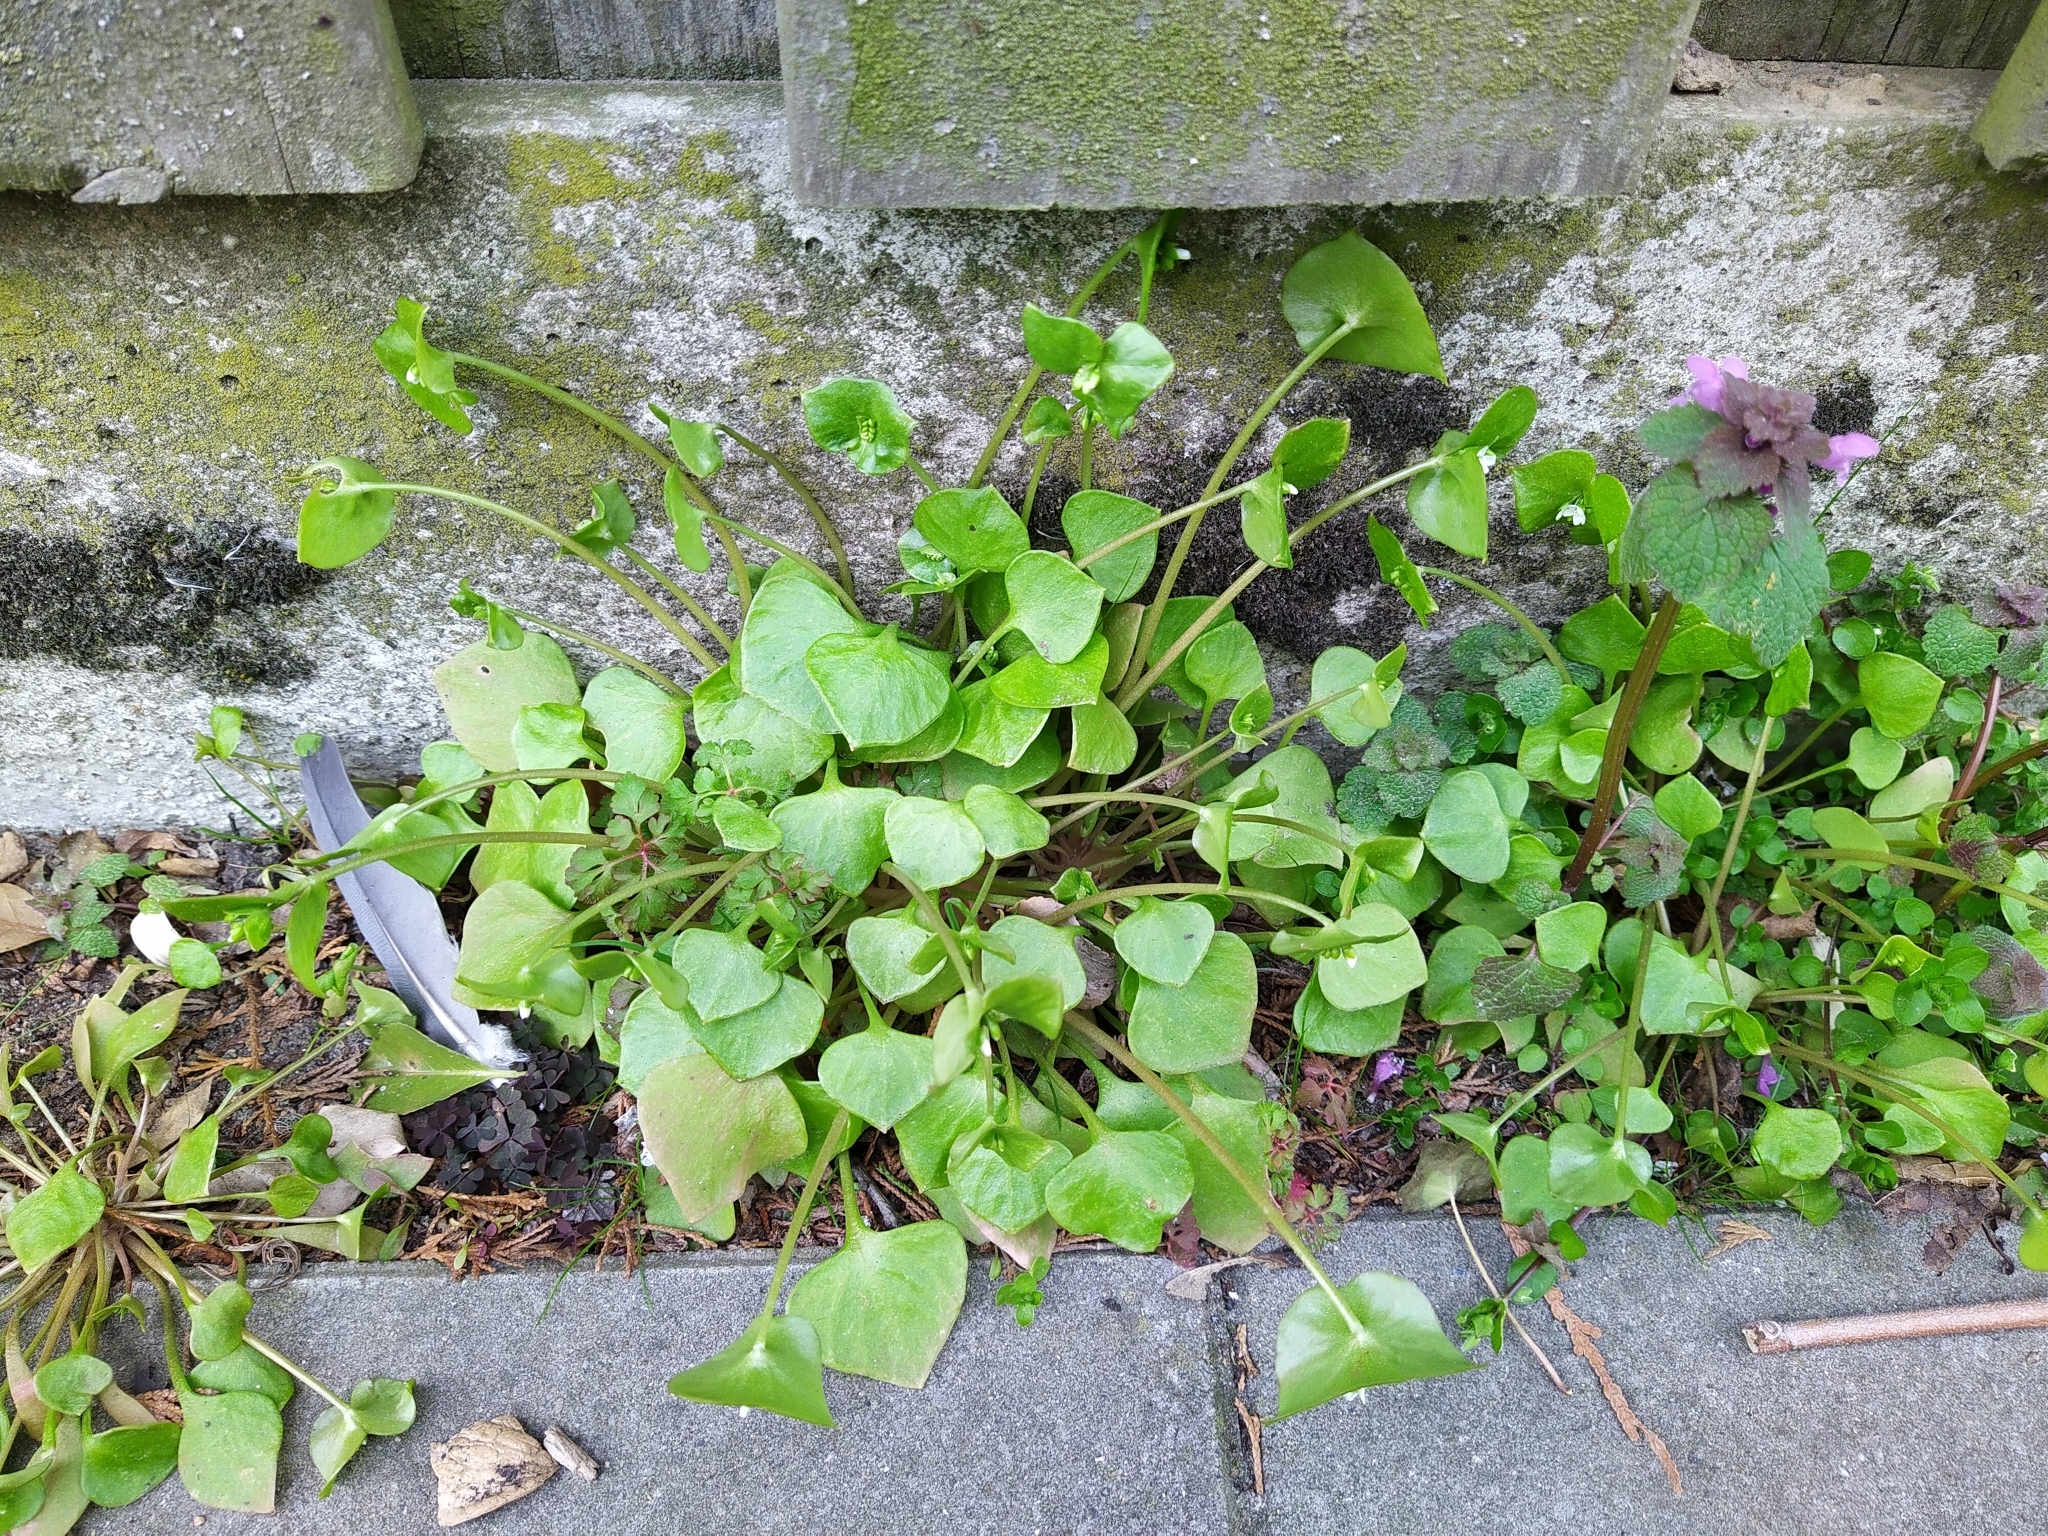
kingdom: Plantae
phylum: Tracheophyta
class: Magnoliopsida
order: Caryophyllales
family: Montiaceae
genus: Claytonia
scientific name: Claytonia perfoliata
